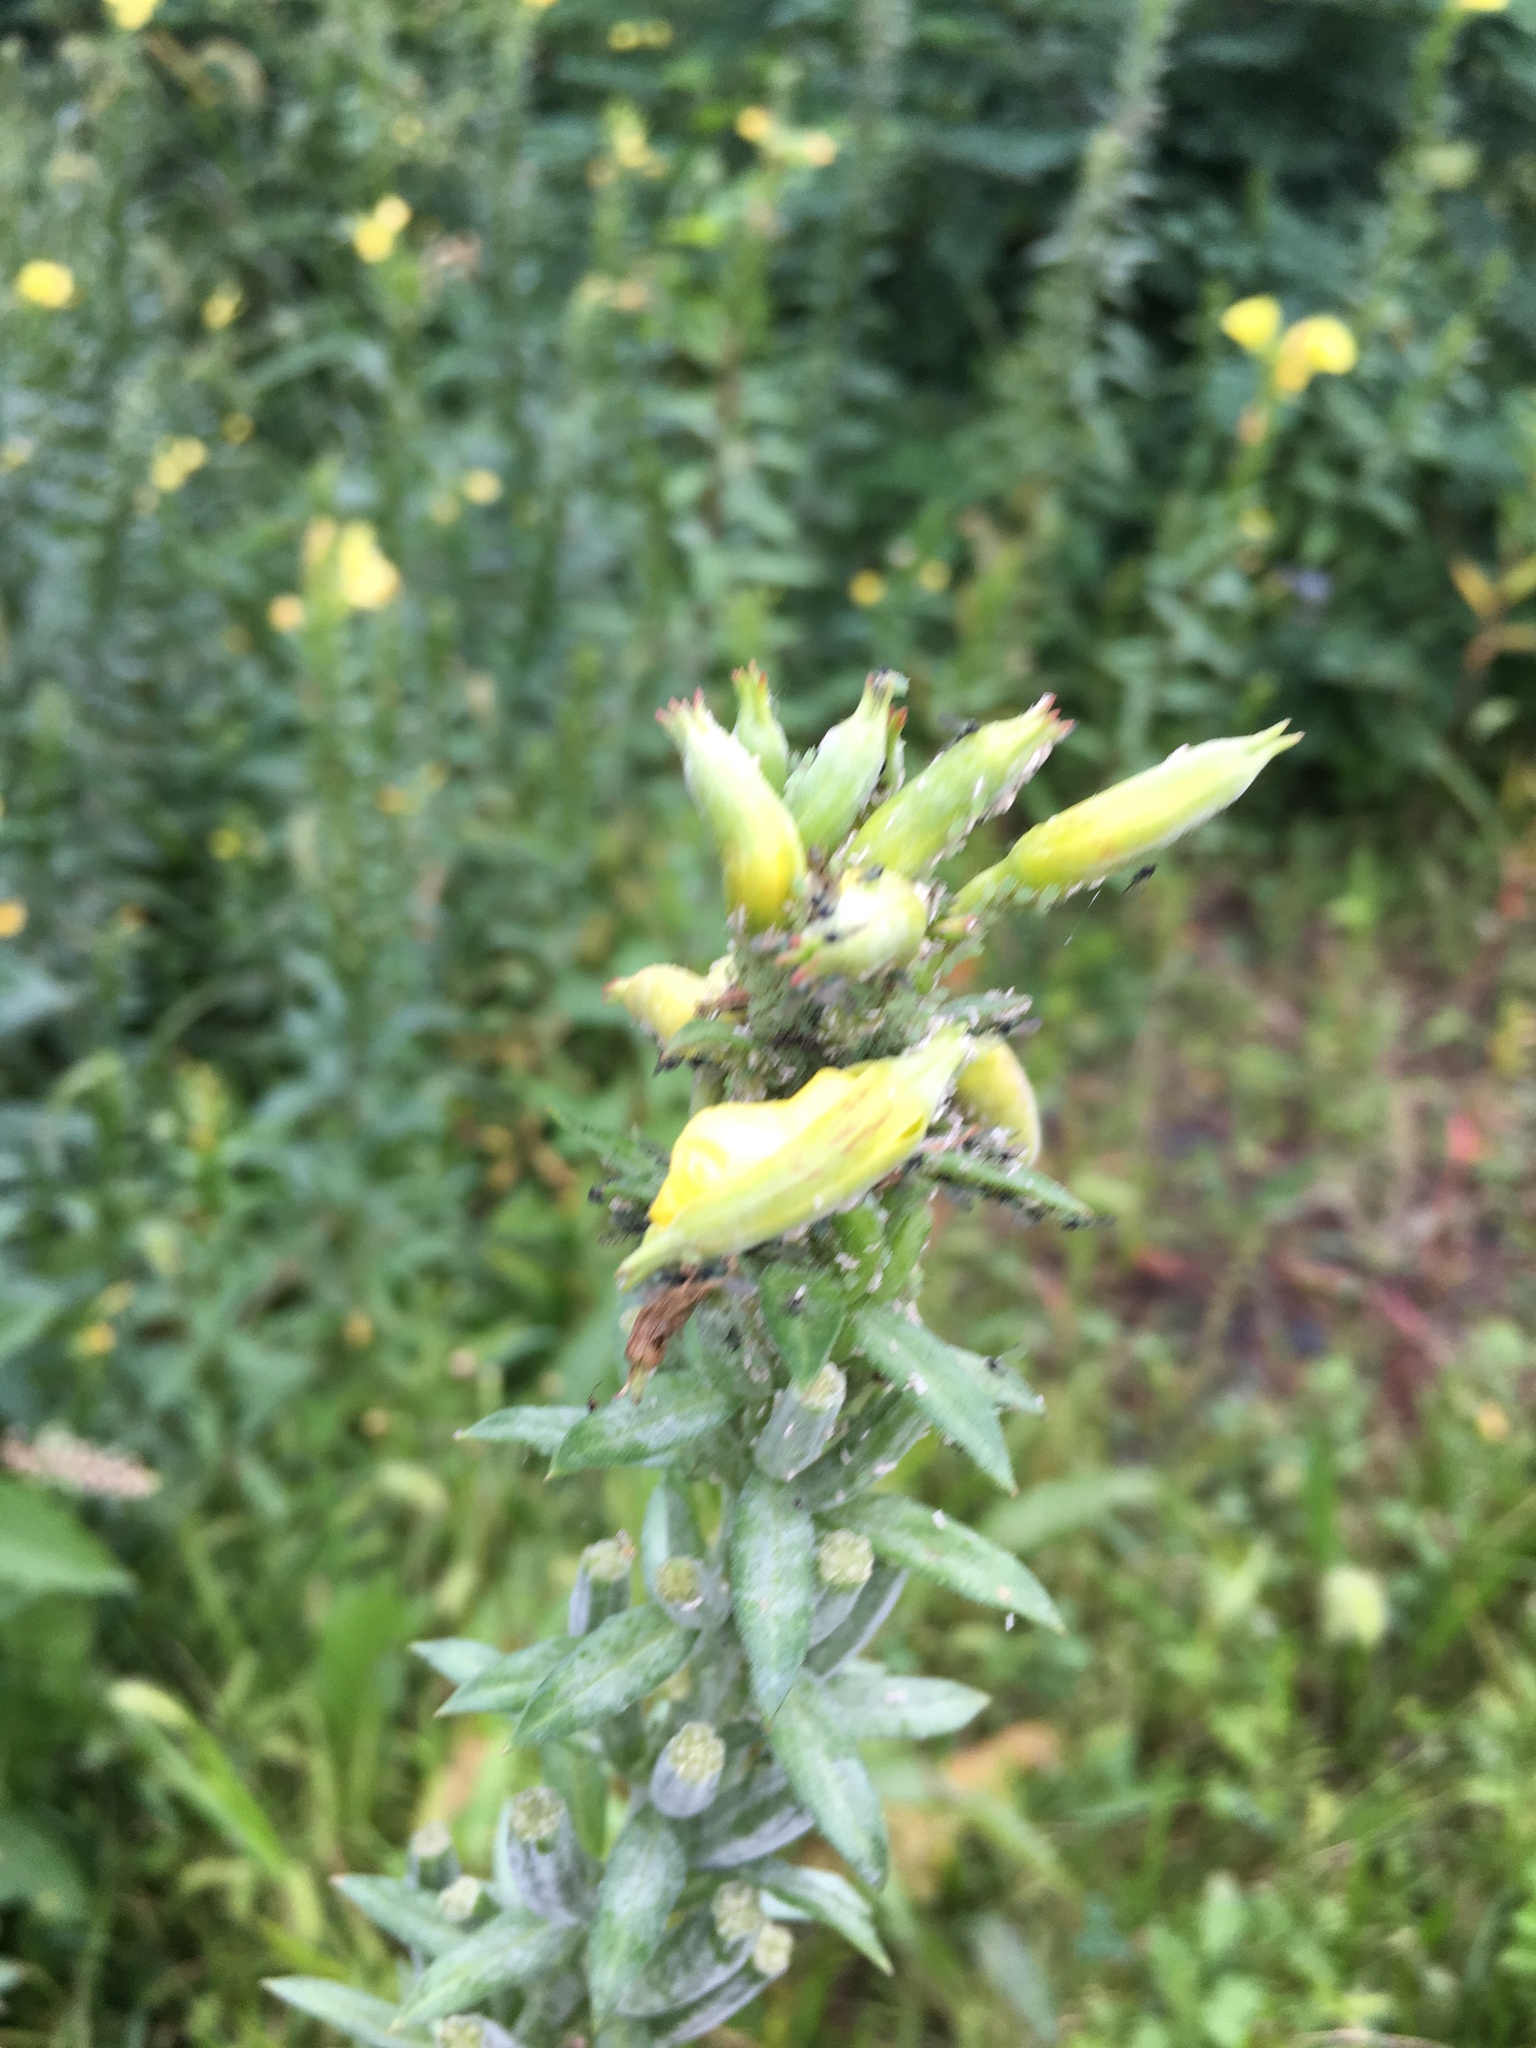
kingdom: Plantae
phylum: Tracheophyta
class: Magnoliopsida
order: Myrtales
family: Onagraceae
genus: Oenothera
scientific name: Oenothera biennis
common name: Common evening-primrose
